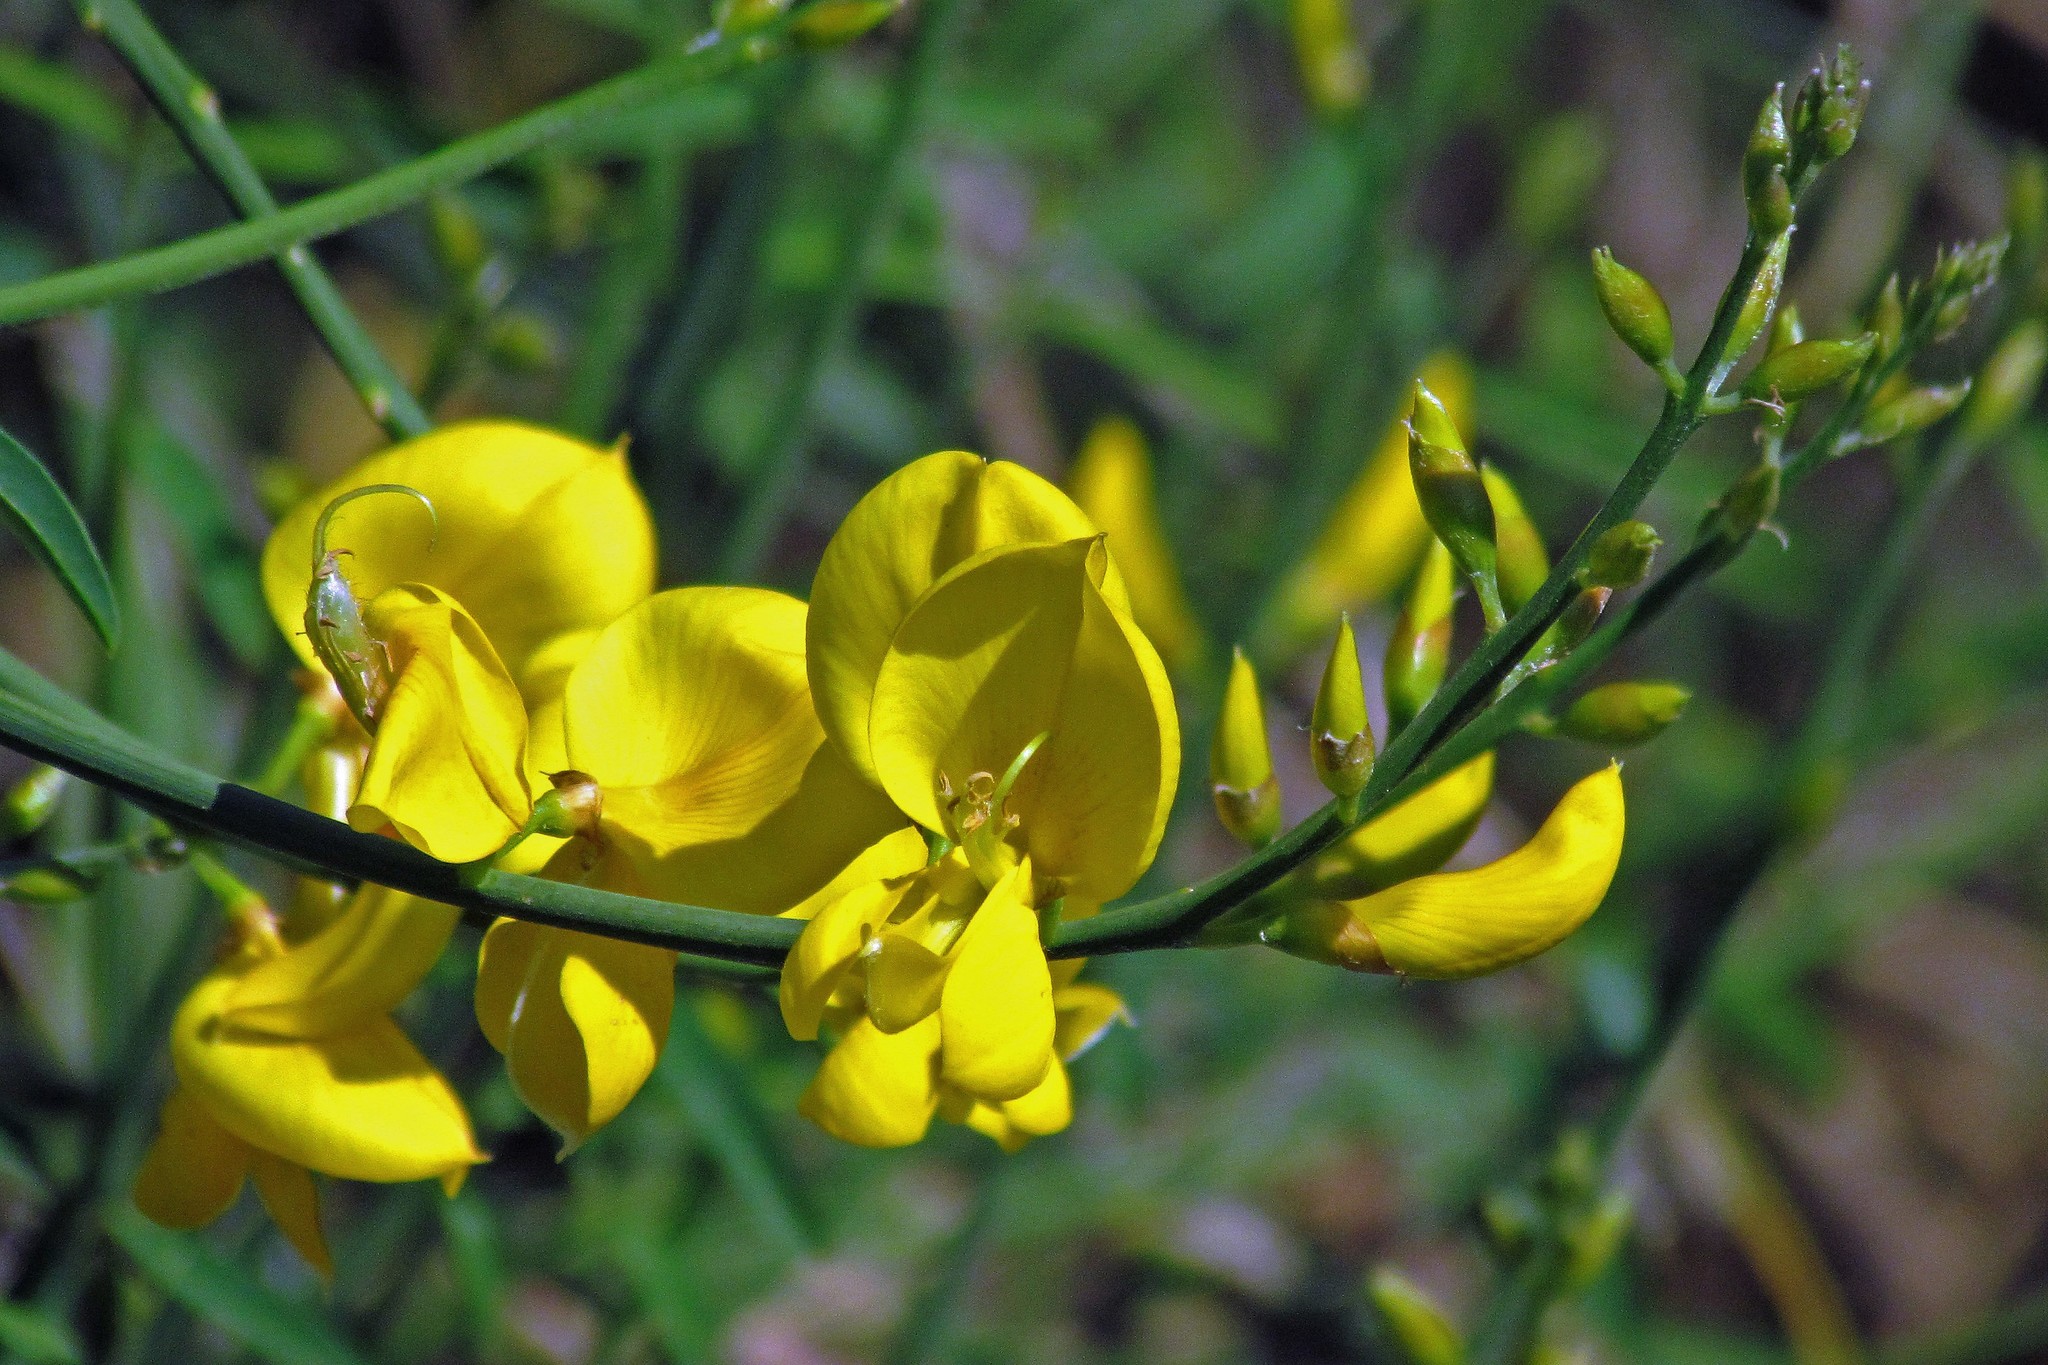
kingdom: Plantae
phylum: Tracheophyta
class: Magnoliopsida
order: Fabales
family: Fabaceae
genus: Spartium
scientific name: Spartium junceum
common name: Spanish broom
